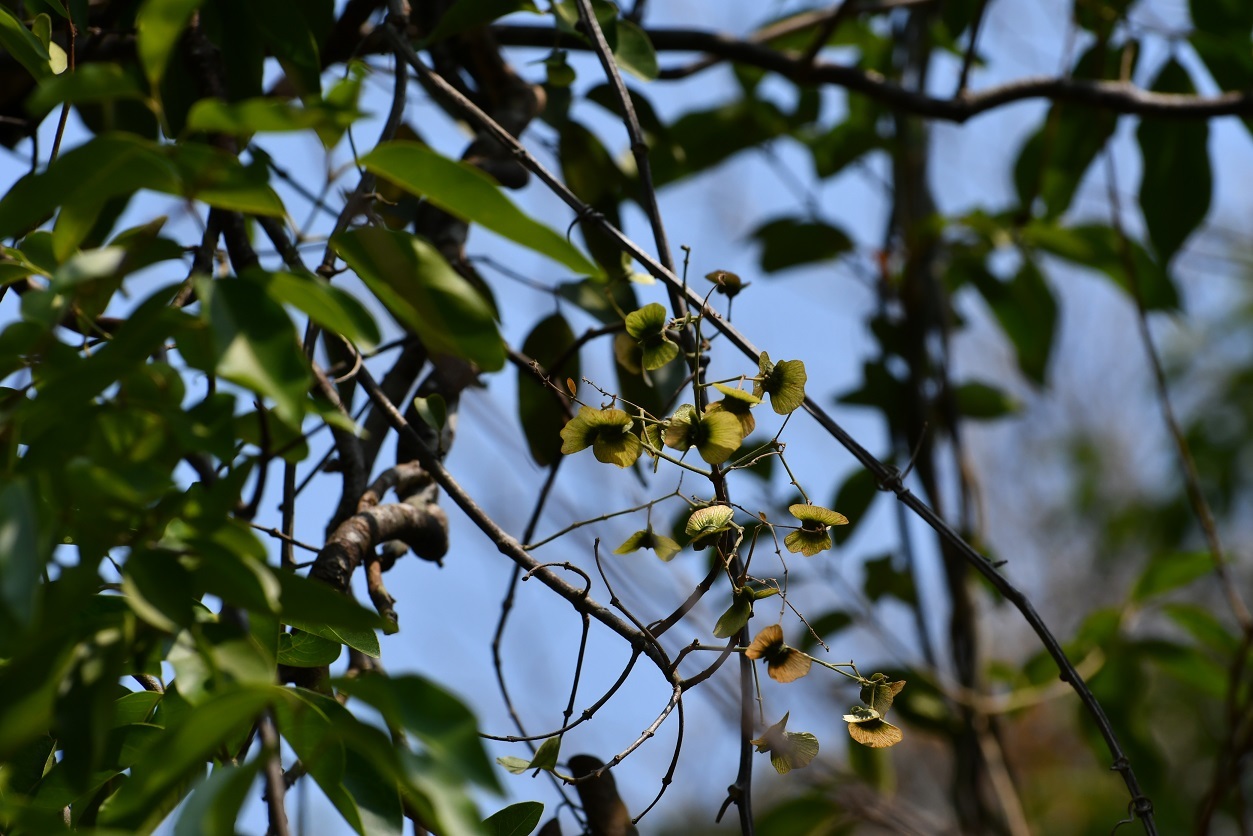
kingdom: Plantae
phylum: Tracheophyta
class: Magnoliopsida
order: Malpighiales
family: Malpighiaceae
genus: Psychopterys
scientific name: Psychopterys ornata
